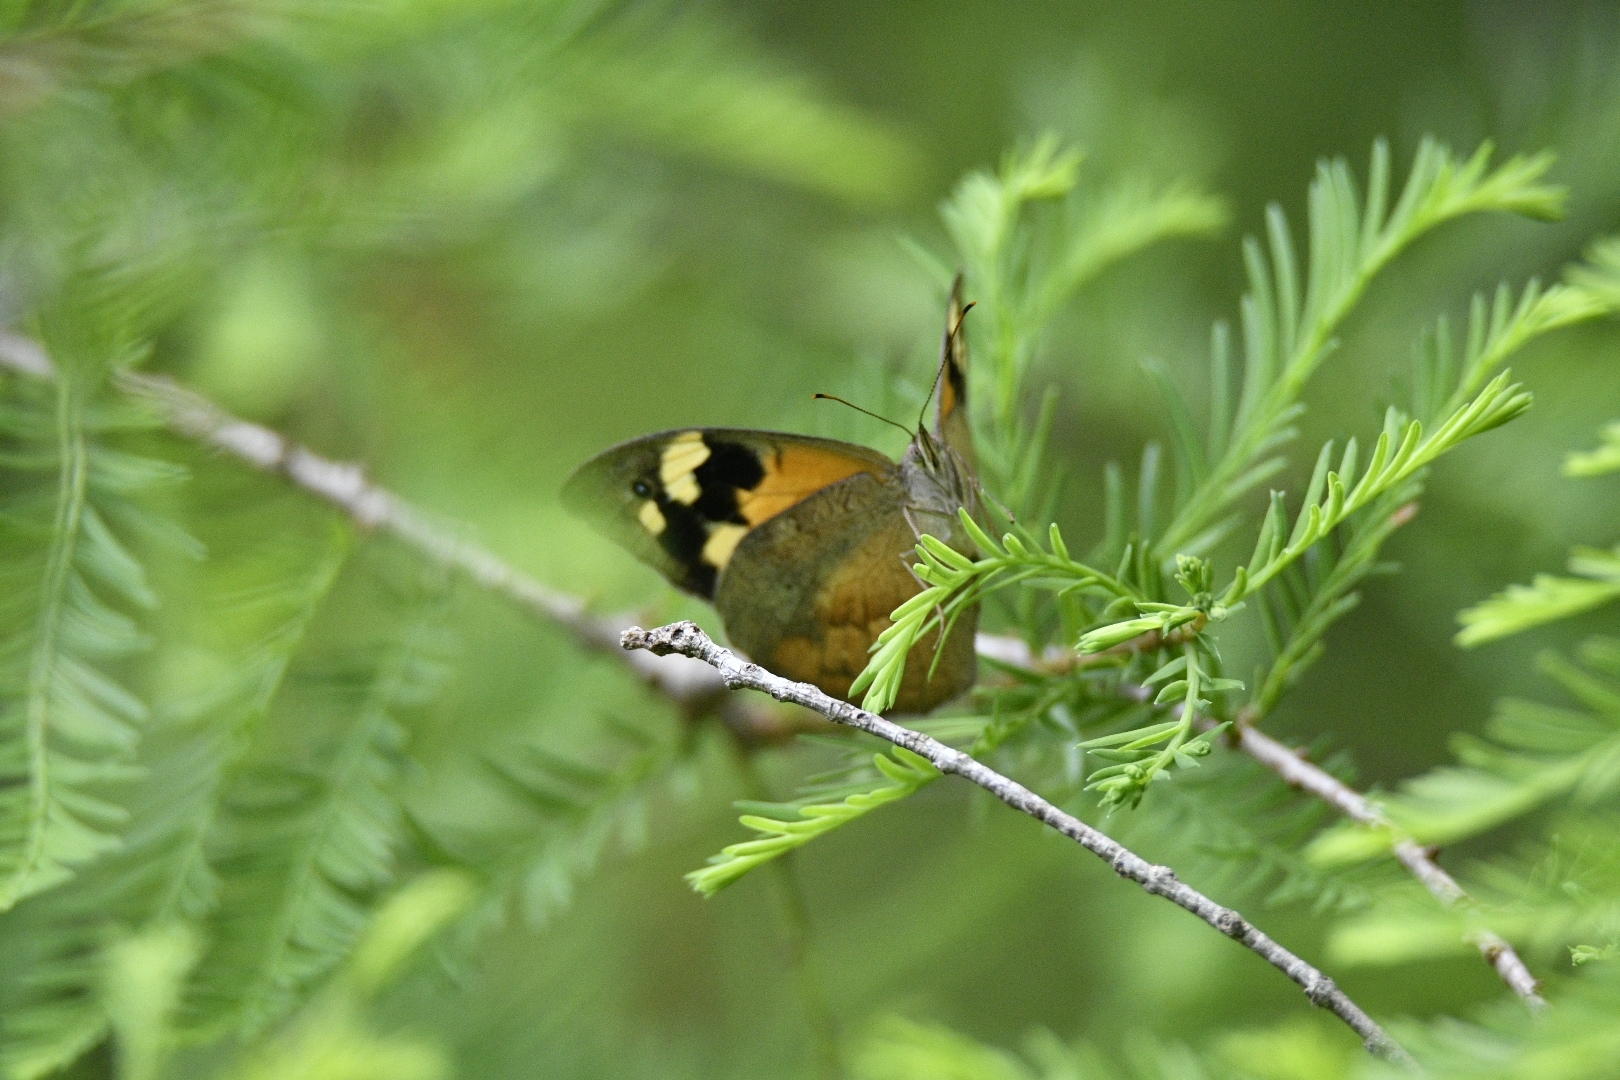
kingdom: Animalia
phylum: Arthropoda
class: Insecta
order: Lepidoptera
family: Nymphalidae
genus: Heteronympha
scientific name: Heteronympha merope
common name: Common brown
